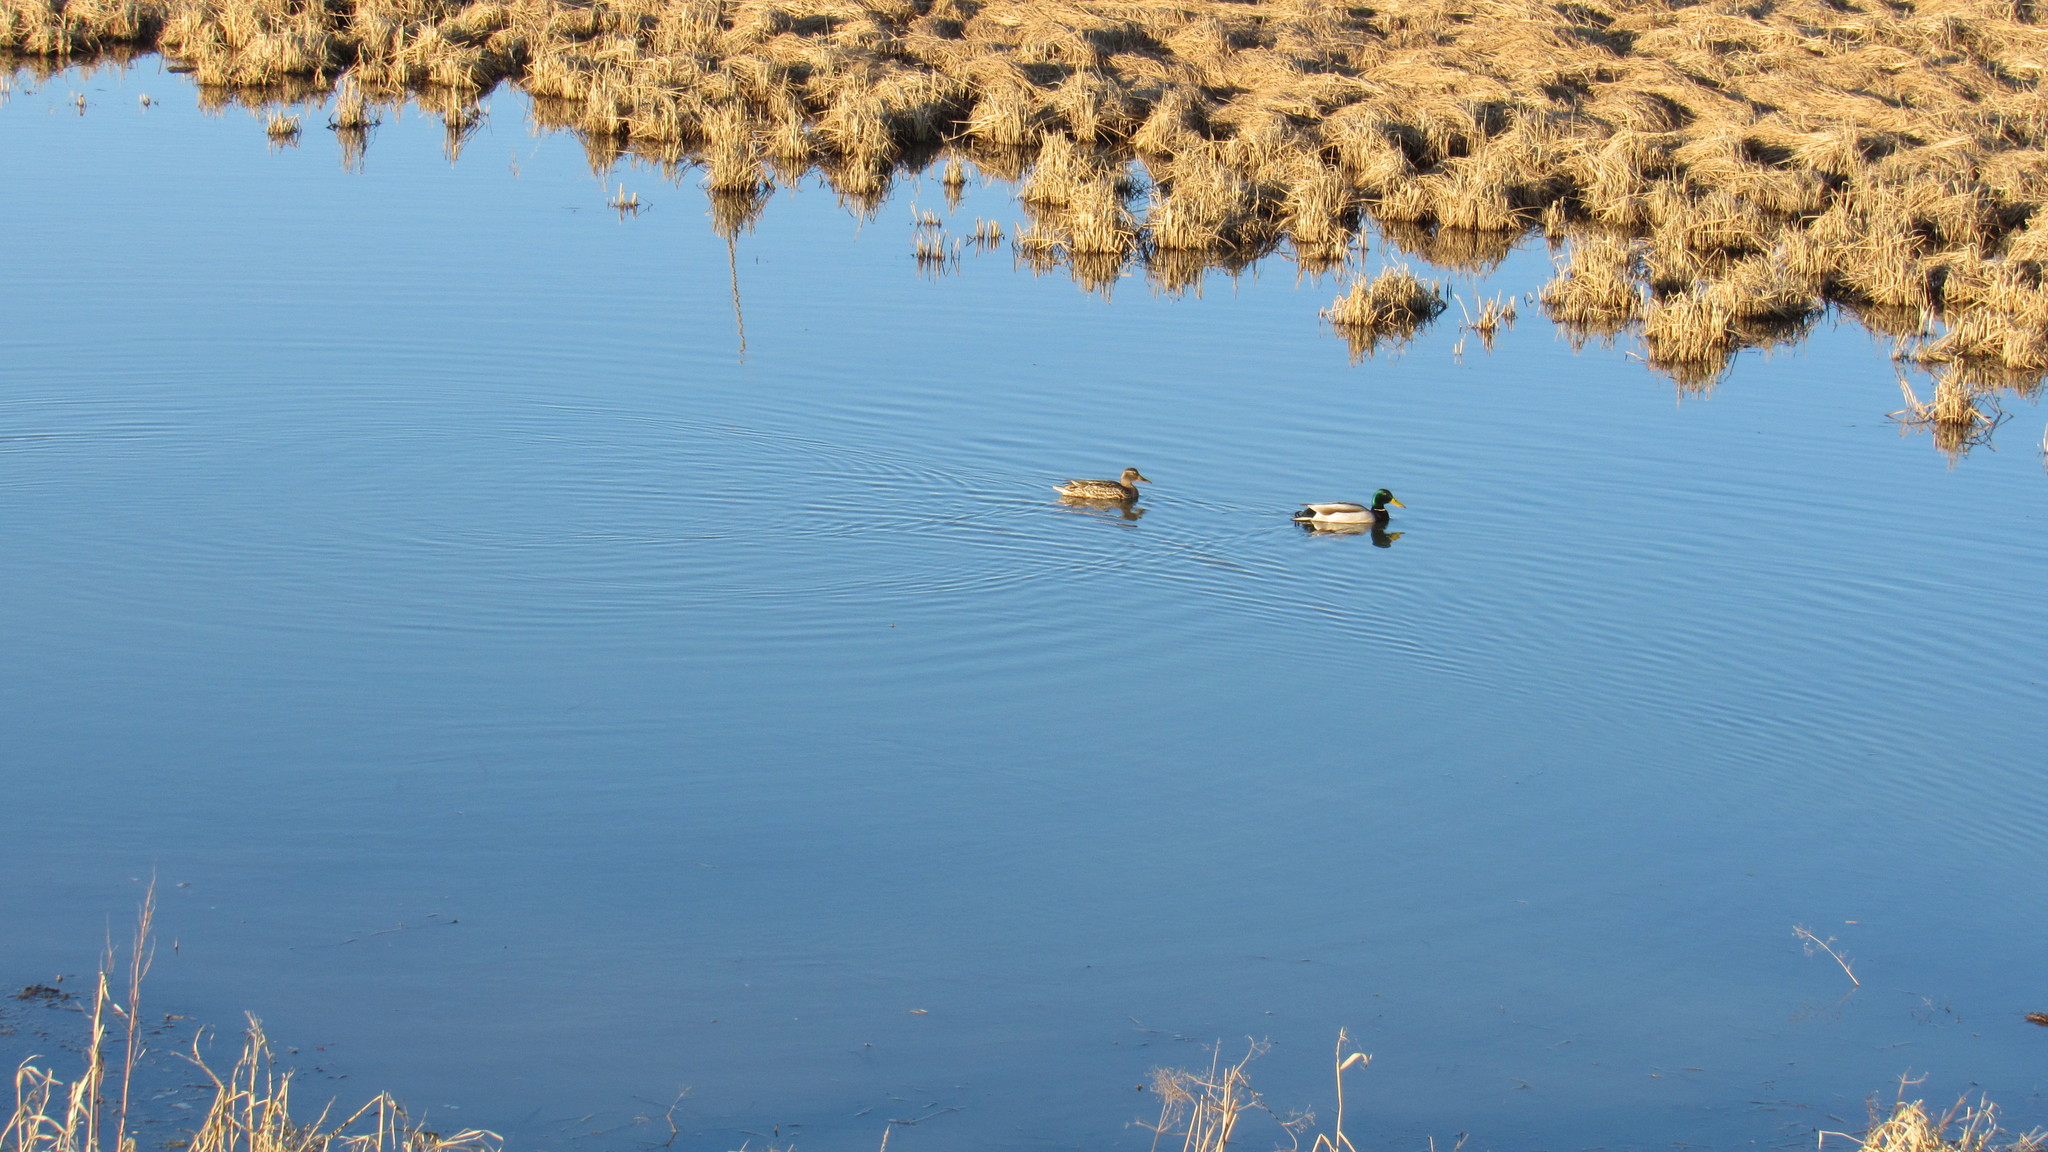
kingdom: Animalia
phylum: Chordata
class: Aves
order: Anseriformes
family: Anatidae
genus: Anas
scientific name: Anas platyrhynchos
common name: Mallard
